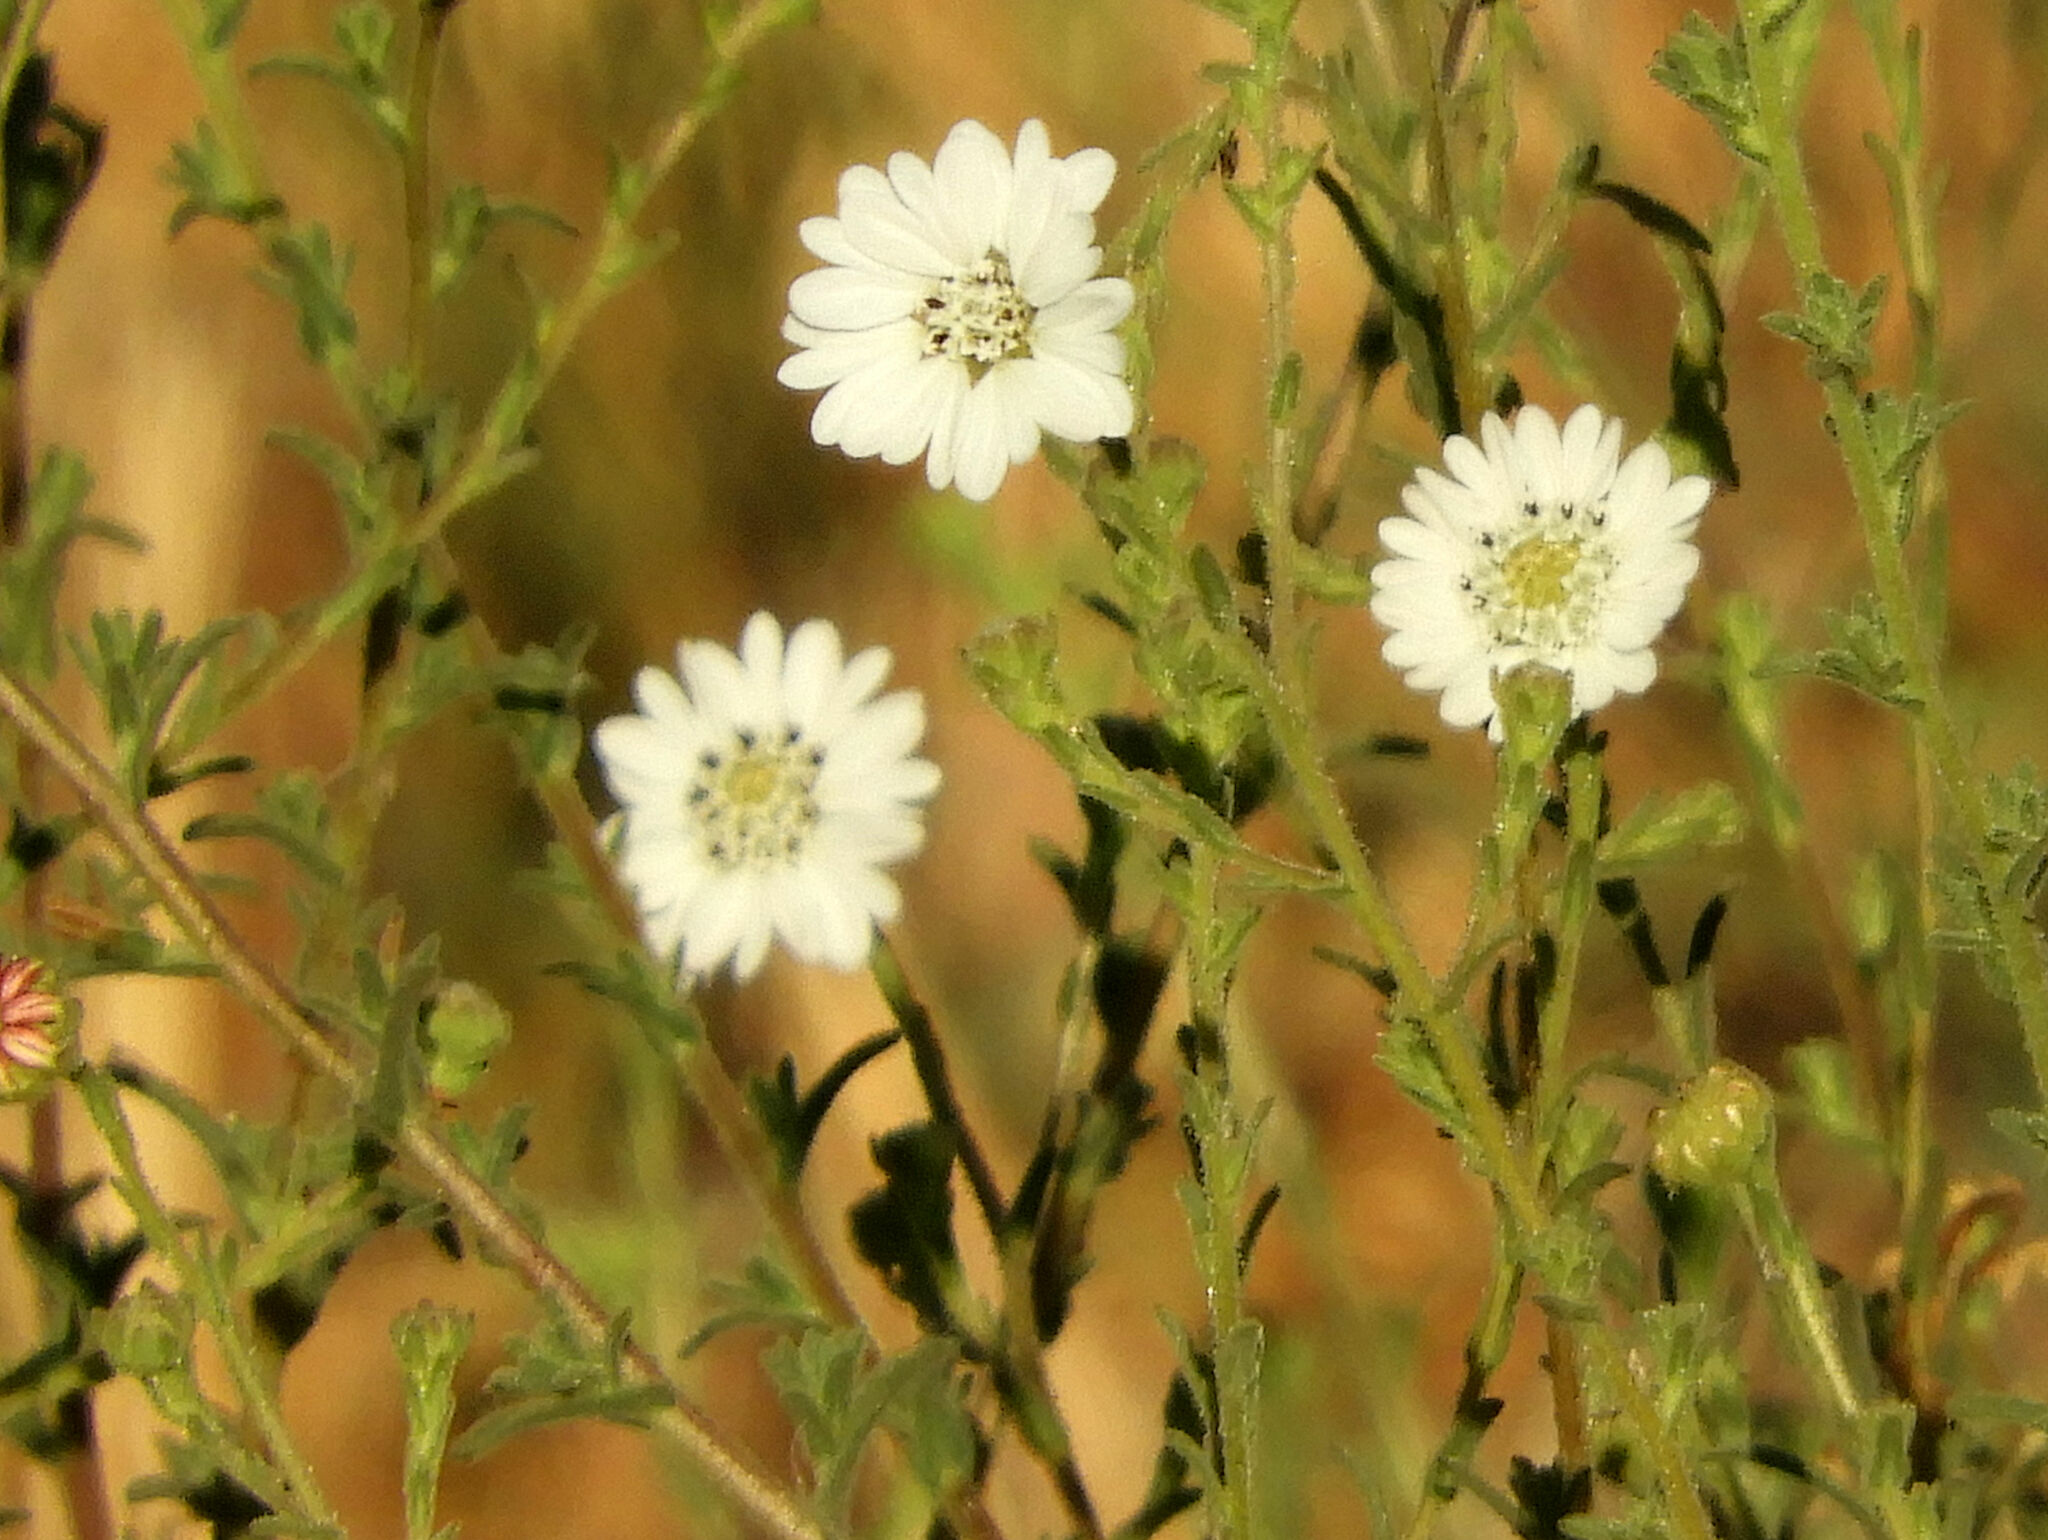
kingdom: Plantae
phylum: Tracheophyta
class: Magnoliopsida
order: Asterales
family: Asteraceae
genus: Hemizonia
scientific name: Hemizonia congesta
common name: Hayfield tarweed
